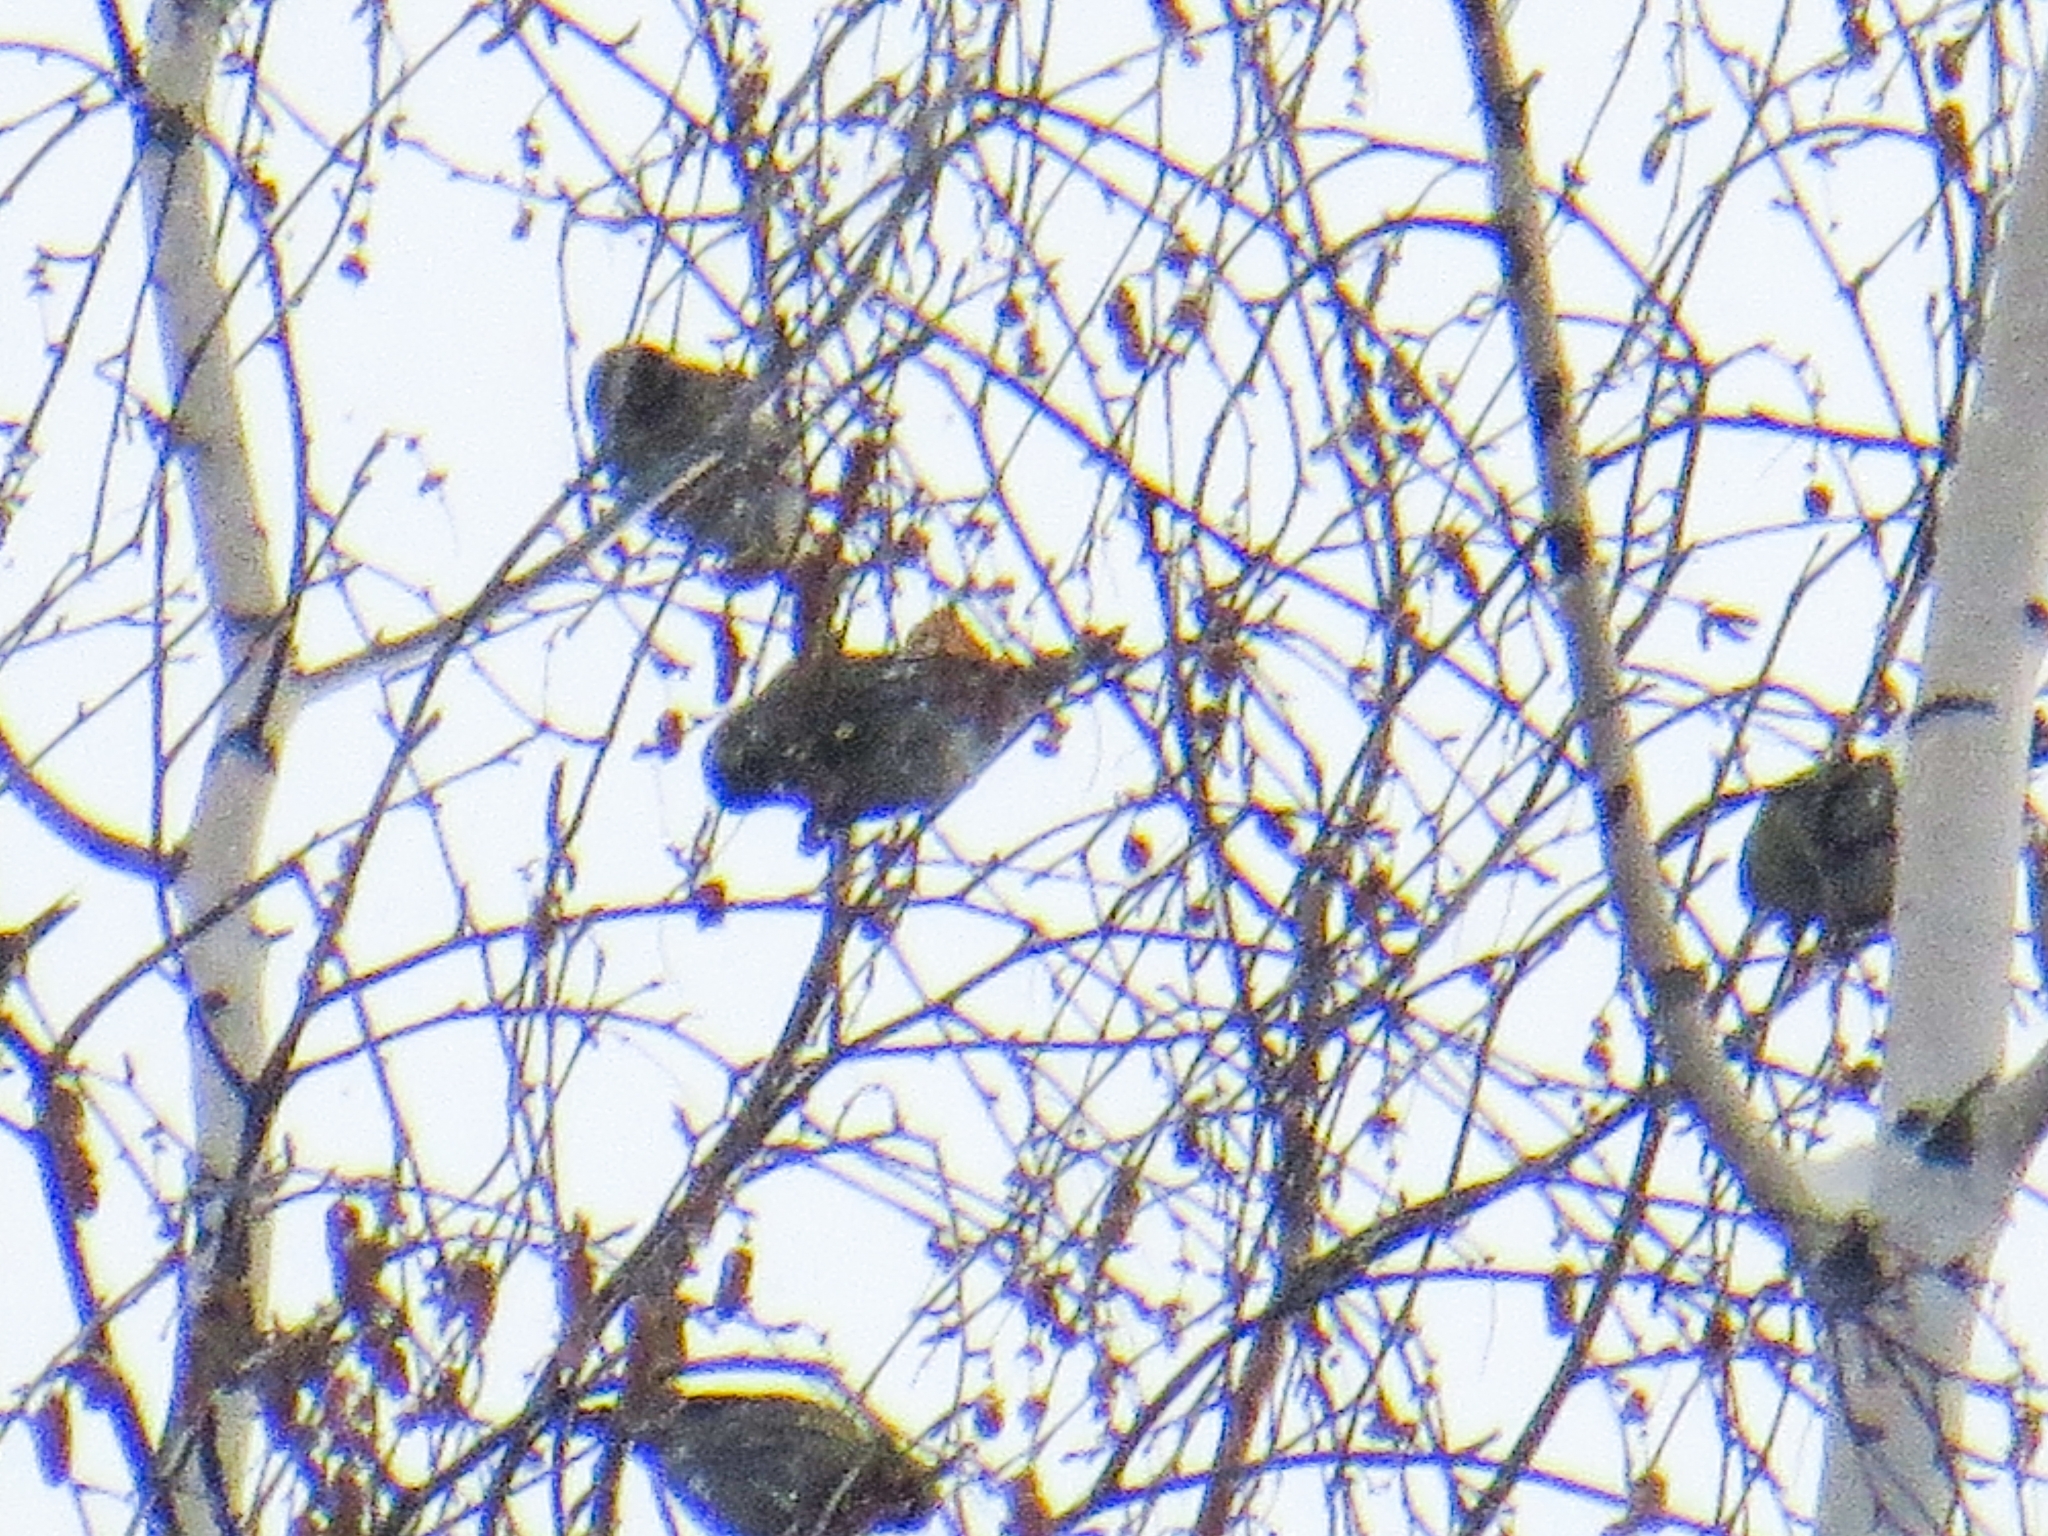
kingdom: Animalia
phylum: Chordata
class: Aves
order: Passeriformes
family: Fringillidae
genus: Spinus
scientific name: Spinus spinus
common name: Eurasian siskin
